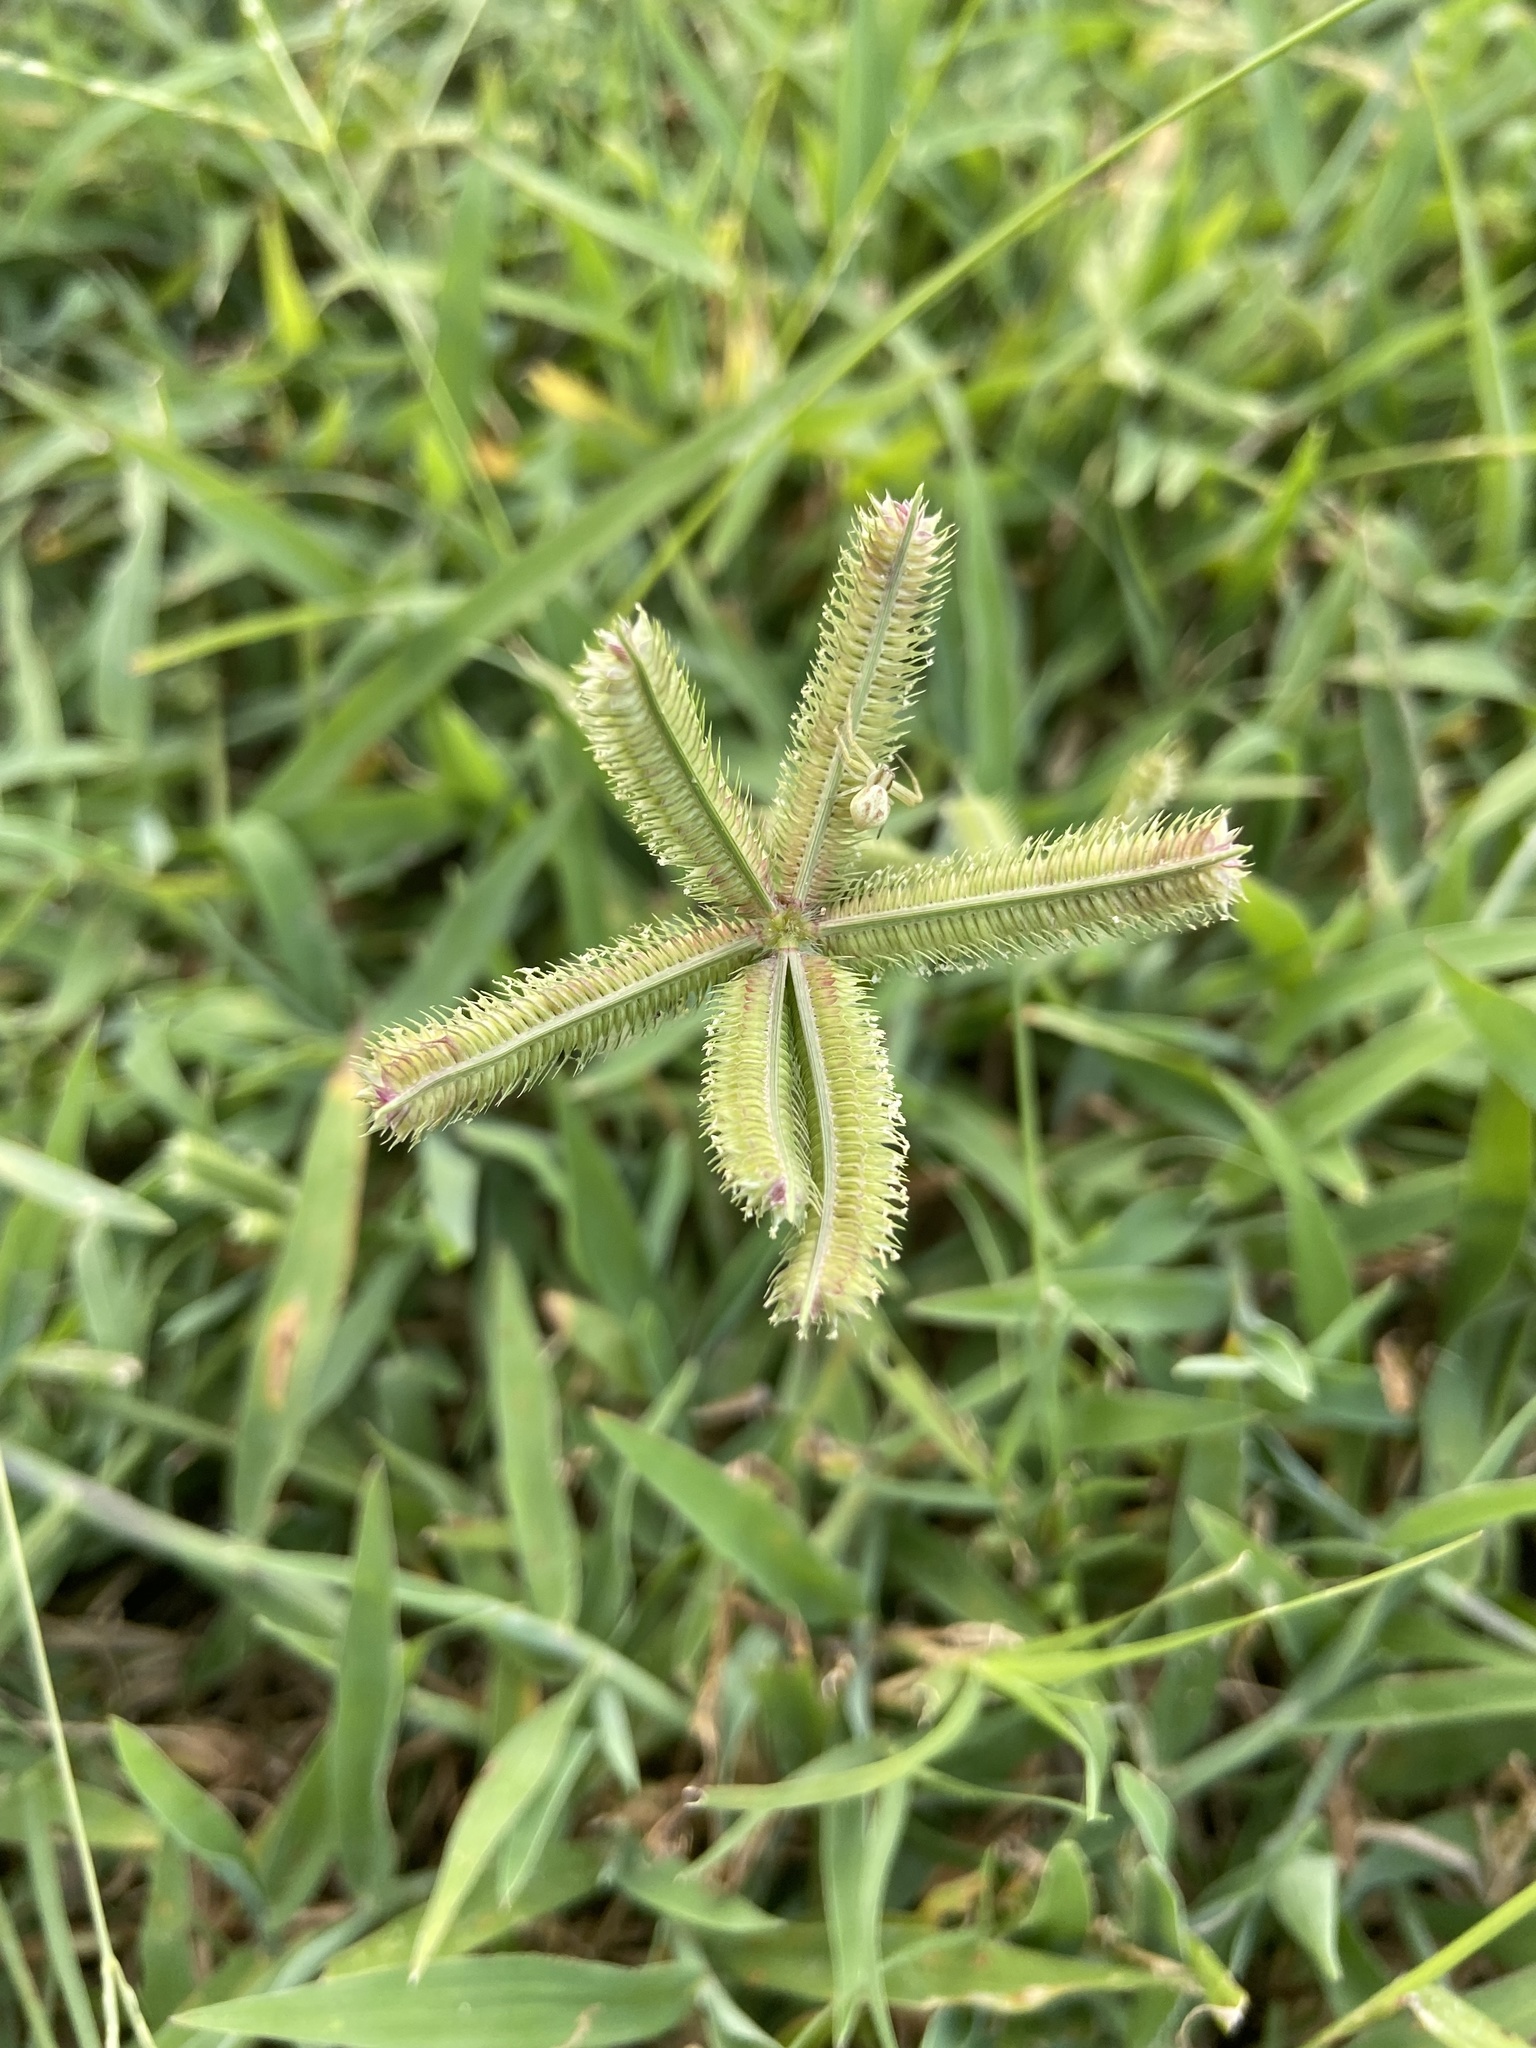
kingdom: Plantae
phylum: Tracheophyta
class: Liliopsida
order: Poales
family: Poaceae
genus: Dactyloctenium
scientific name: Dactyloctenium aegyptium
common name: Egyptian grass
